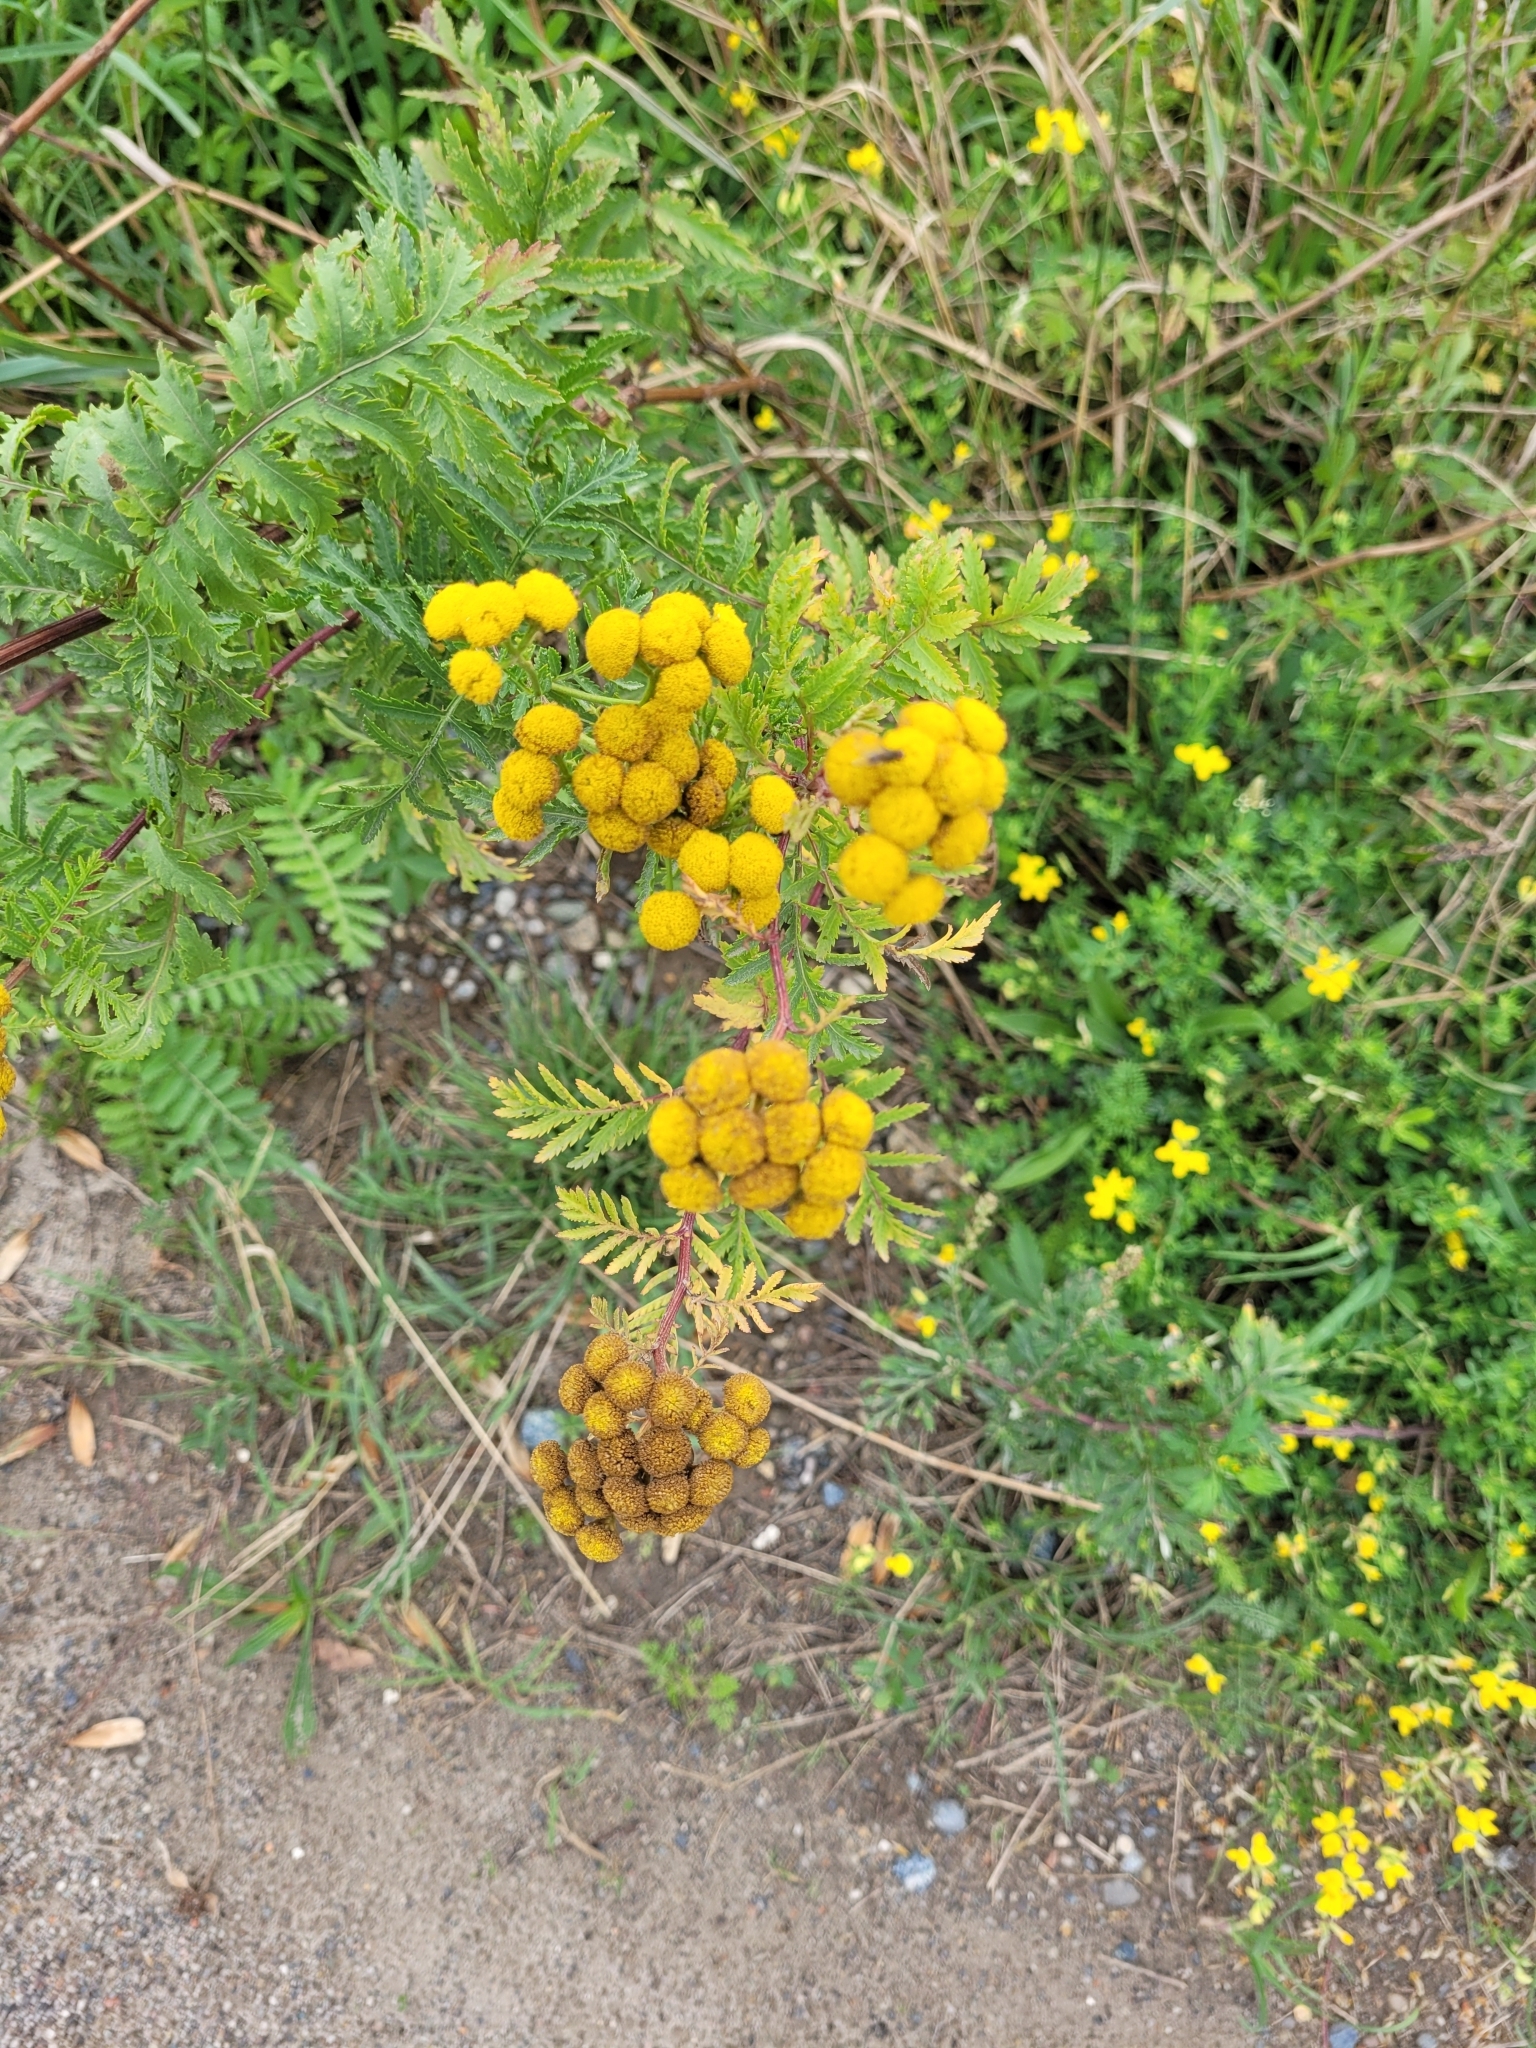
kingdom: Plantae
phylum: Tracheophyta
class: Magnoliopsida
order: Asterales
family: Asteraceae
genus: Tanacetum
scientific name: Tanacetum vulgare
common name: Common tansy
